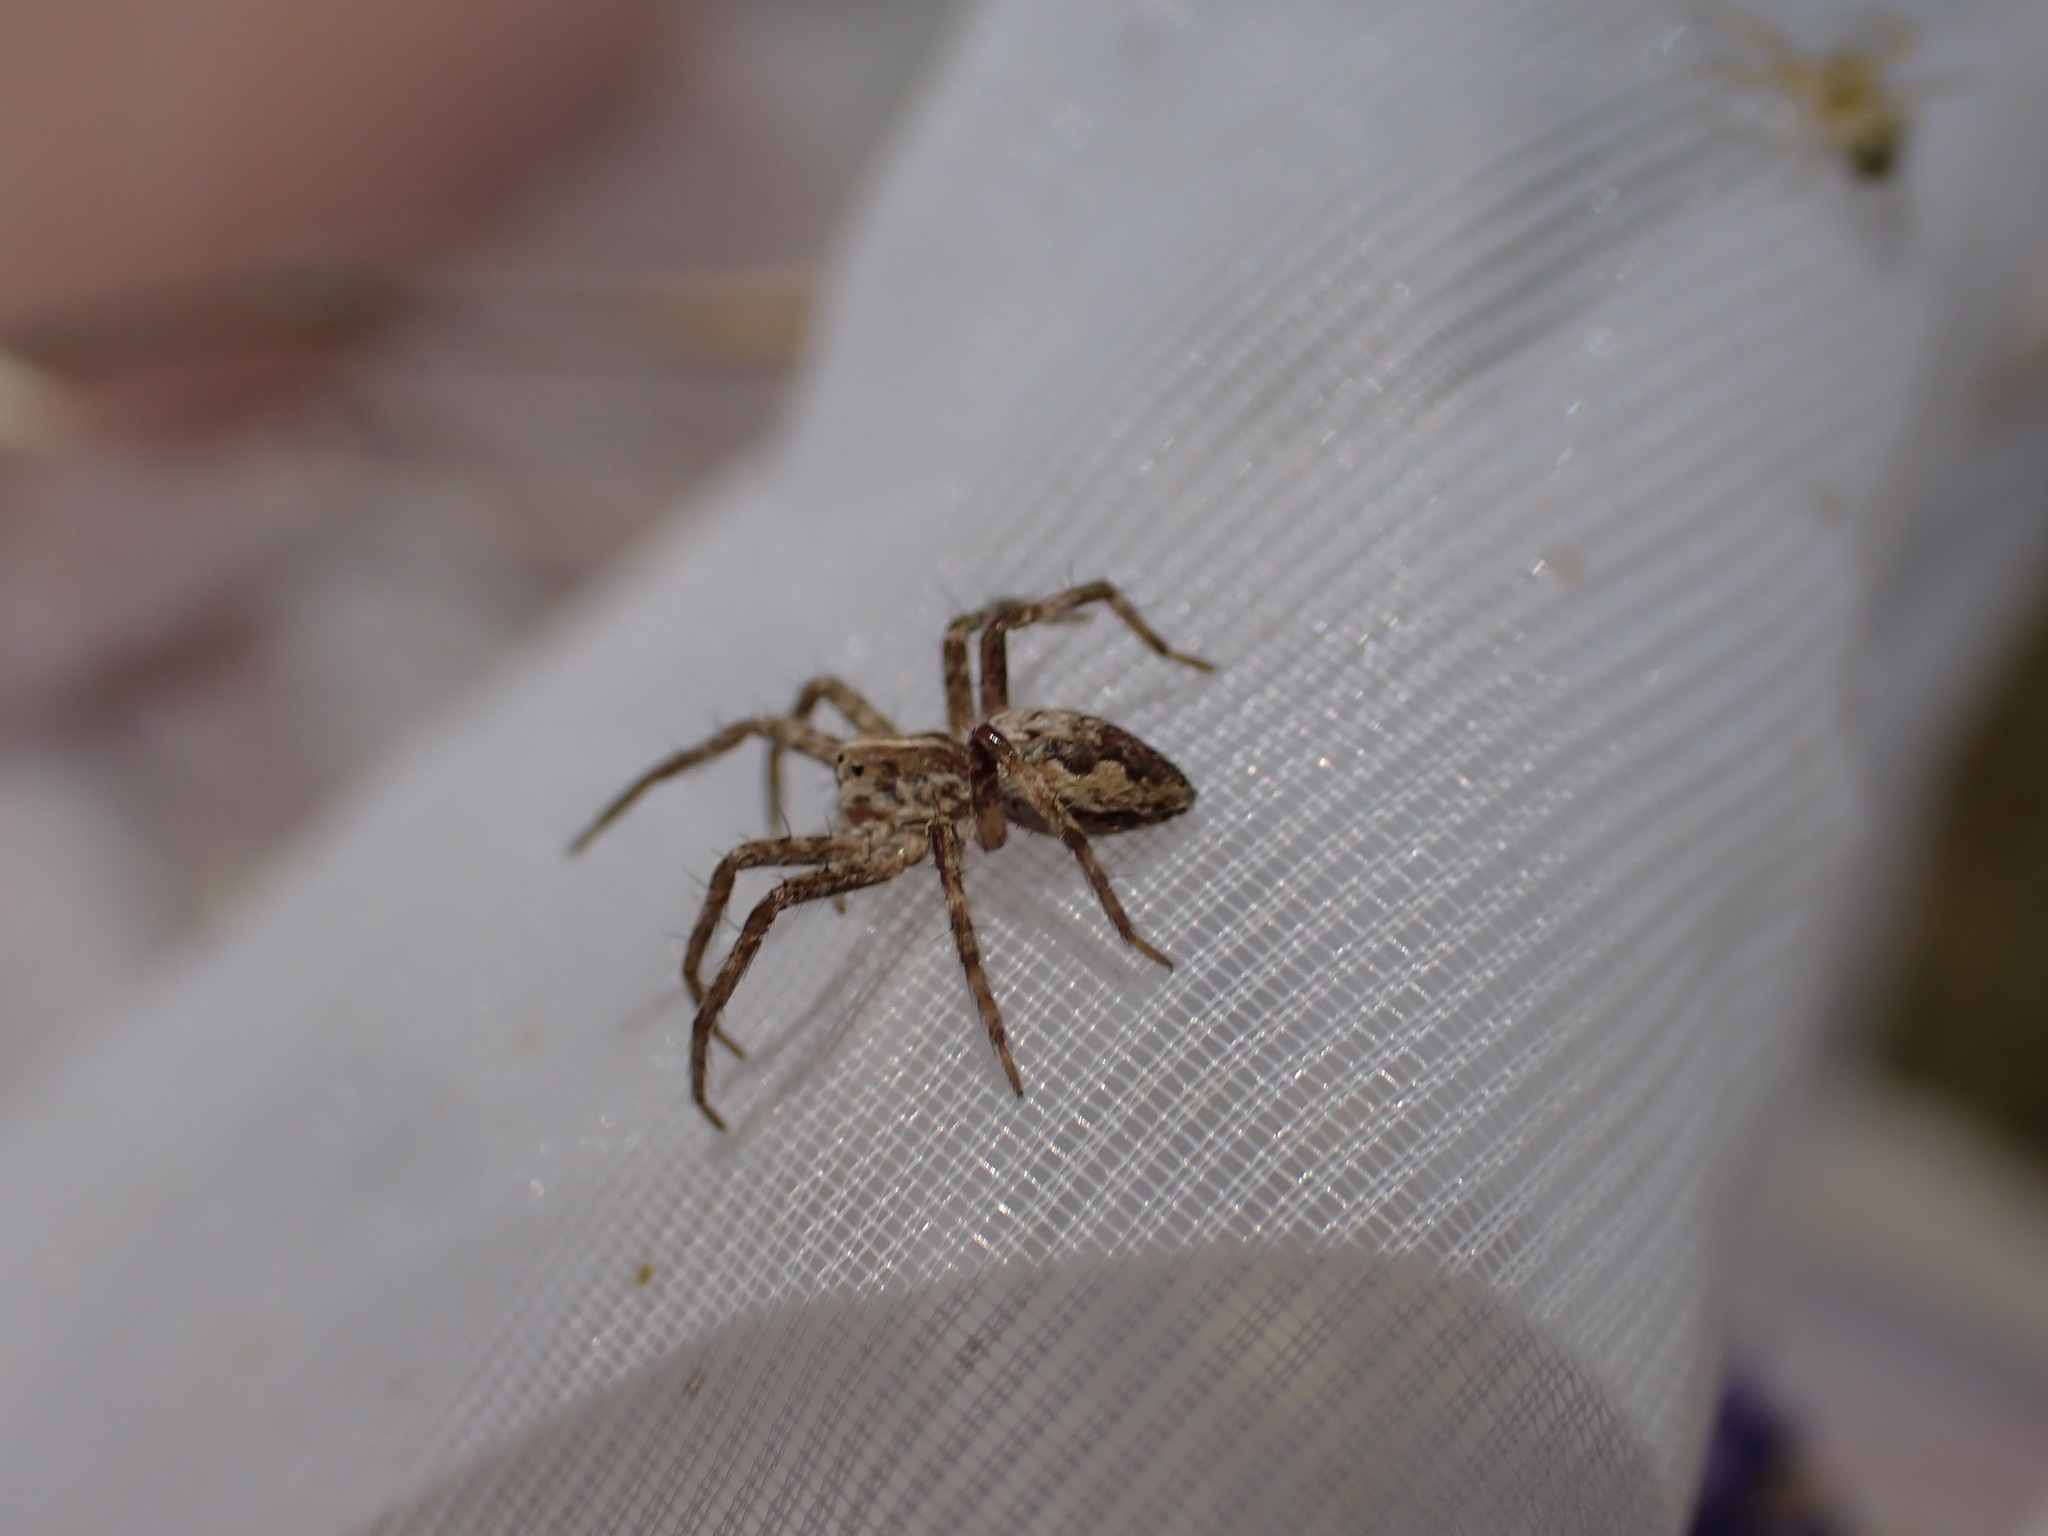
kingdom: Animalia
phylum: Arthropoda
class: Arachnida
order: Araneae
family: Pisauridae
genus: Pisaura
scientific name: Pisaura
